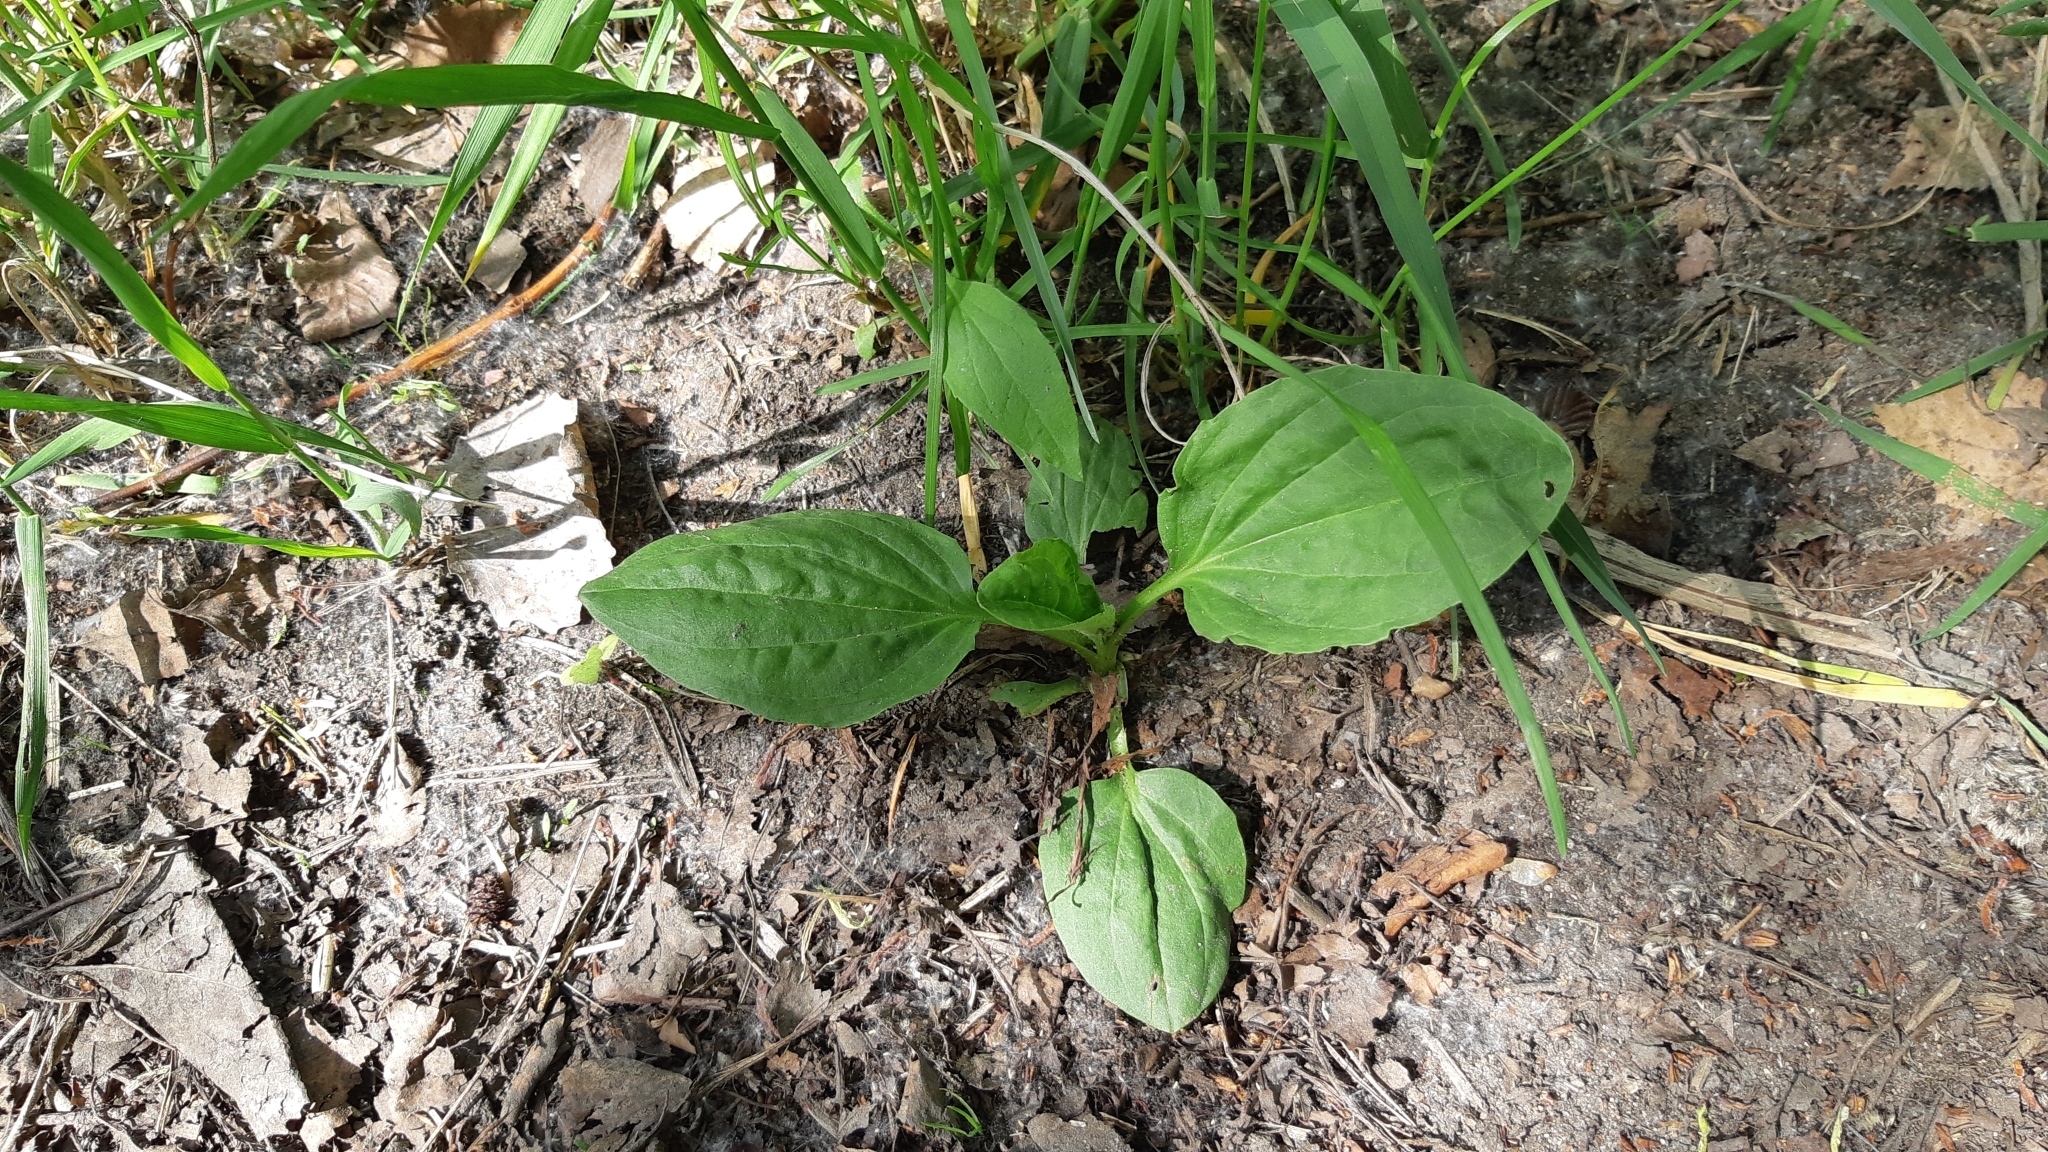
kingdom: Plantae
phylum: Tracheophyta
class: Magnoliopsida
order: Lamiales
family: Plantaginaceae
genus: Plantago
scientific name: Plantago major
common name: Common plantain
